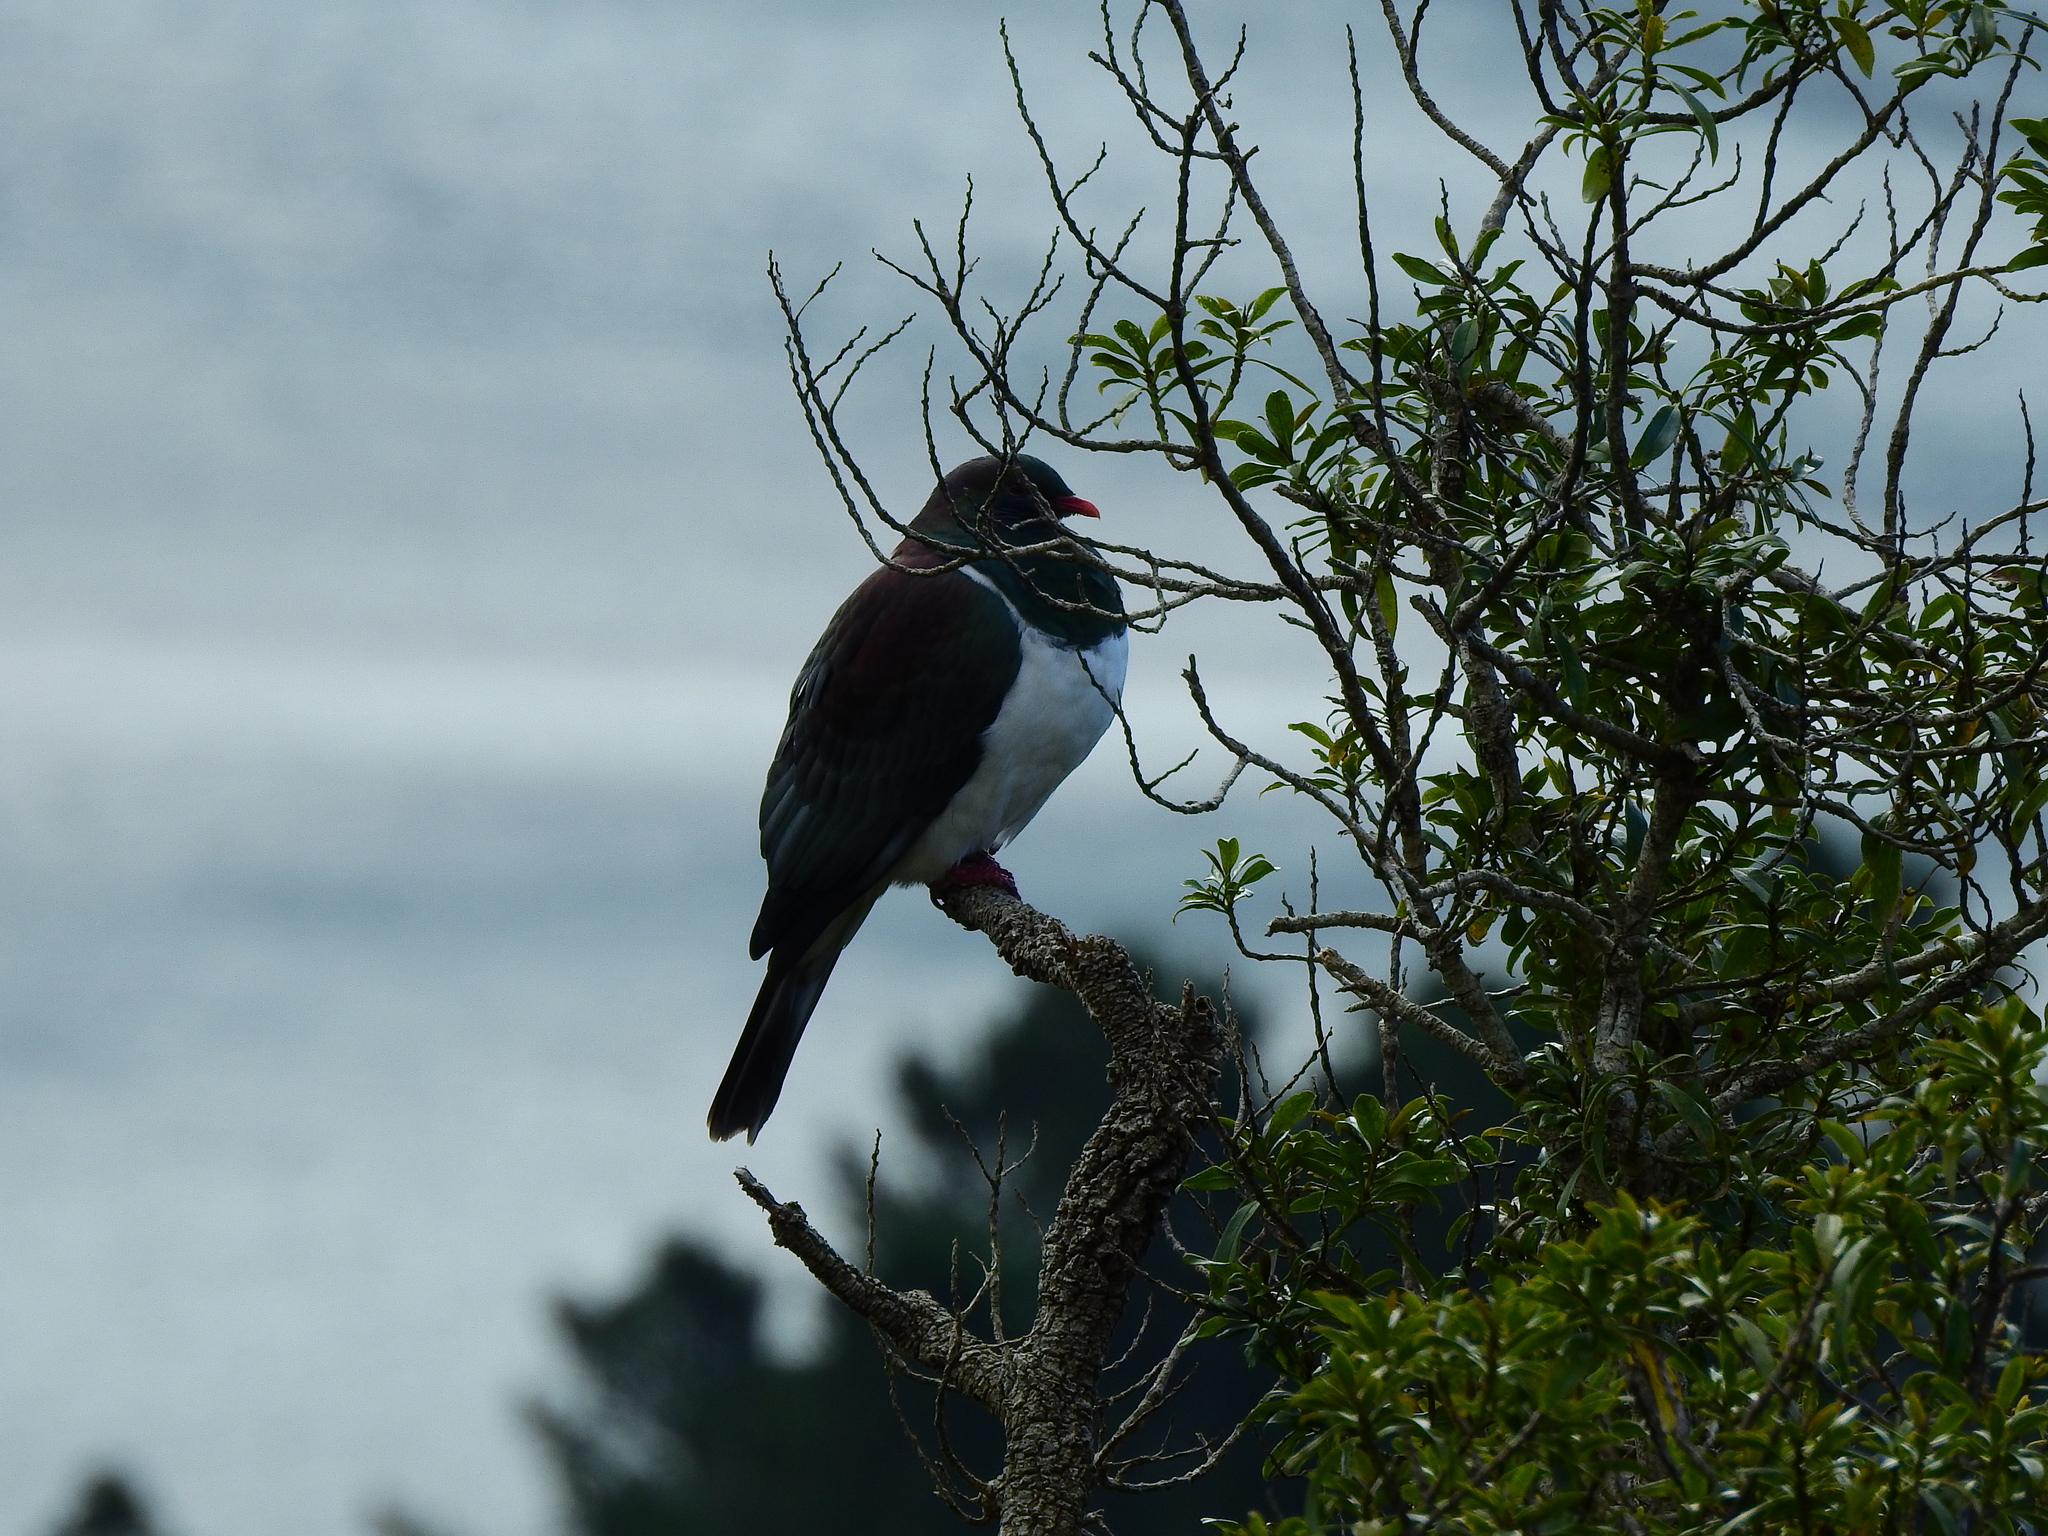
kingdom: Animalia
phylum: Chordata
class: Aves
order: Columbiformes
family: Columbidae
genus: Hemiphaga
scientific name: Hemiphaga novaeseelandiae
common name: New zealand pigeon
